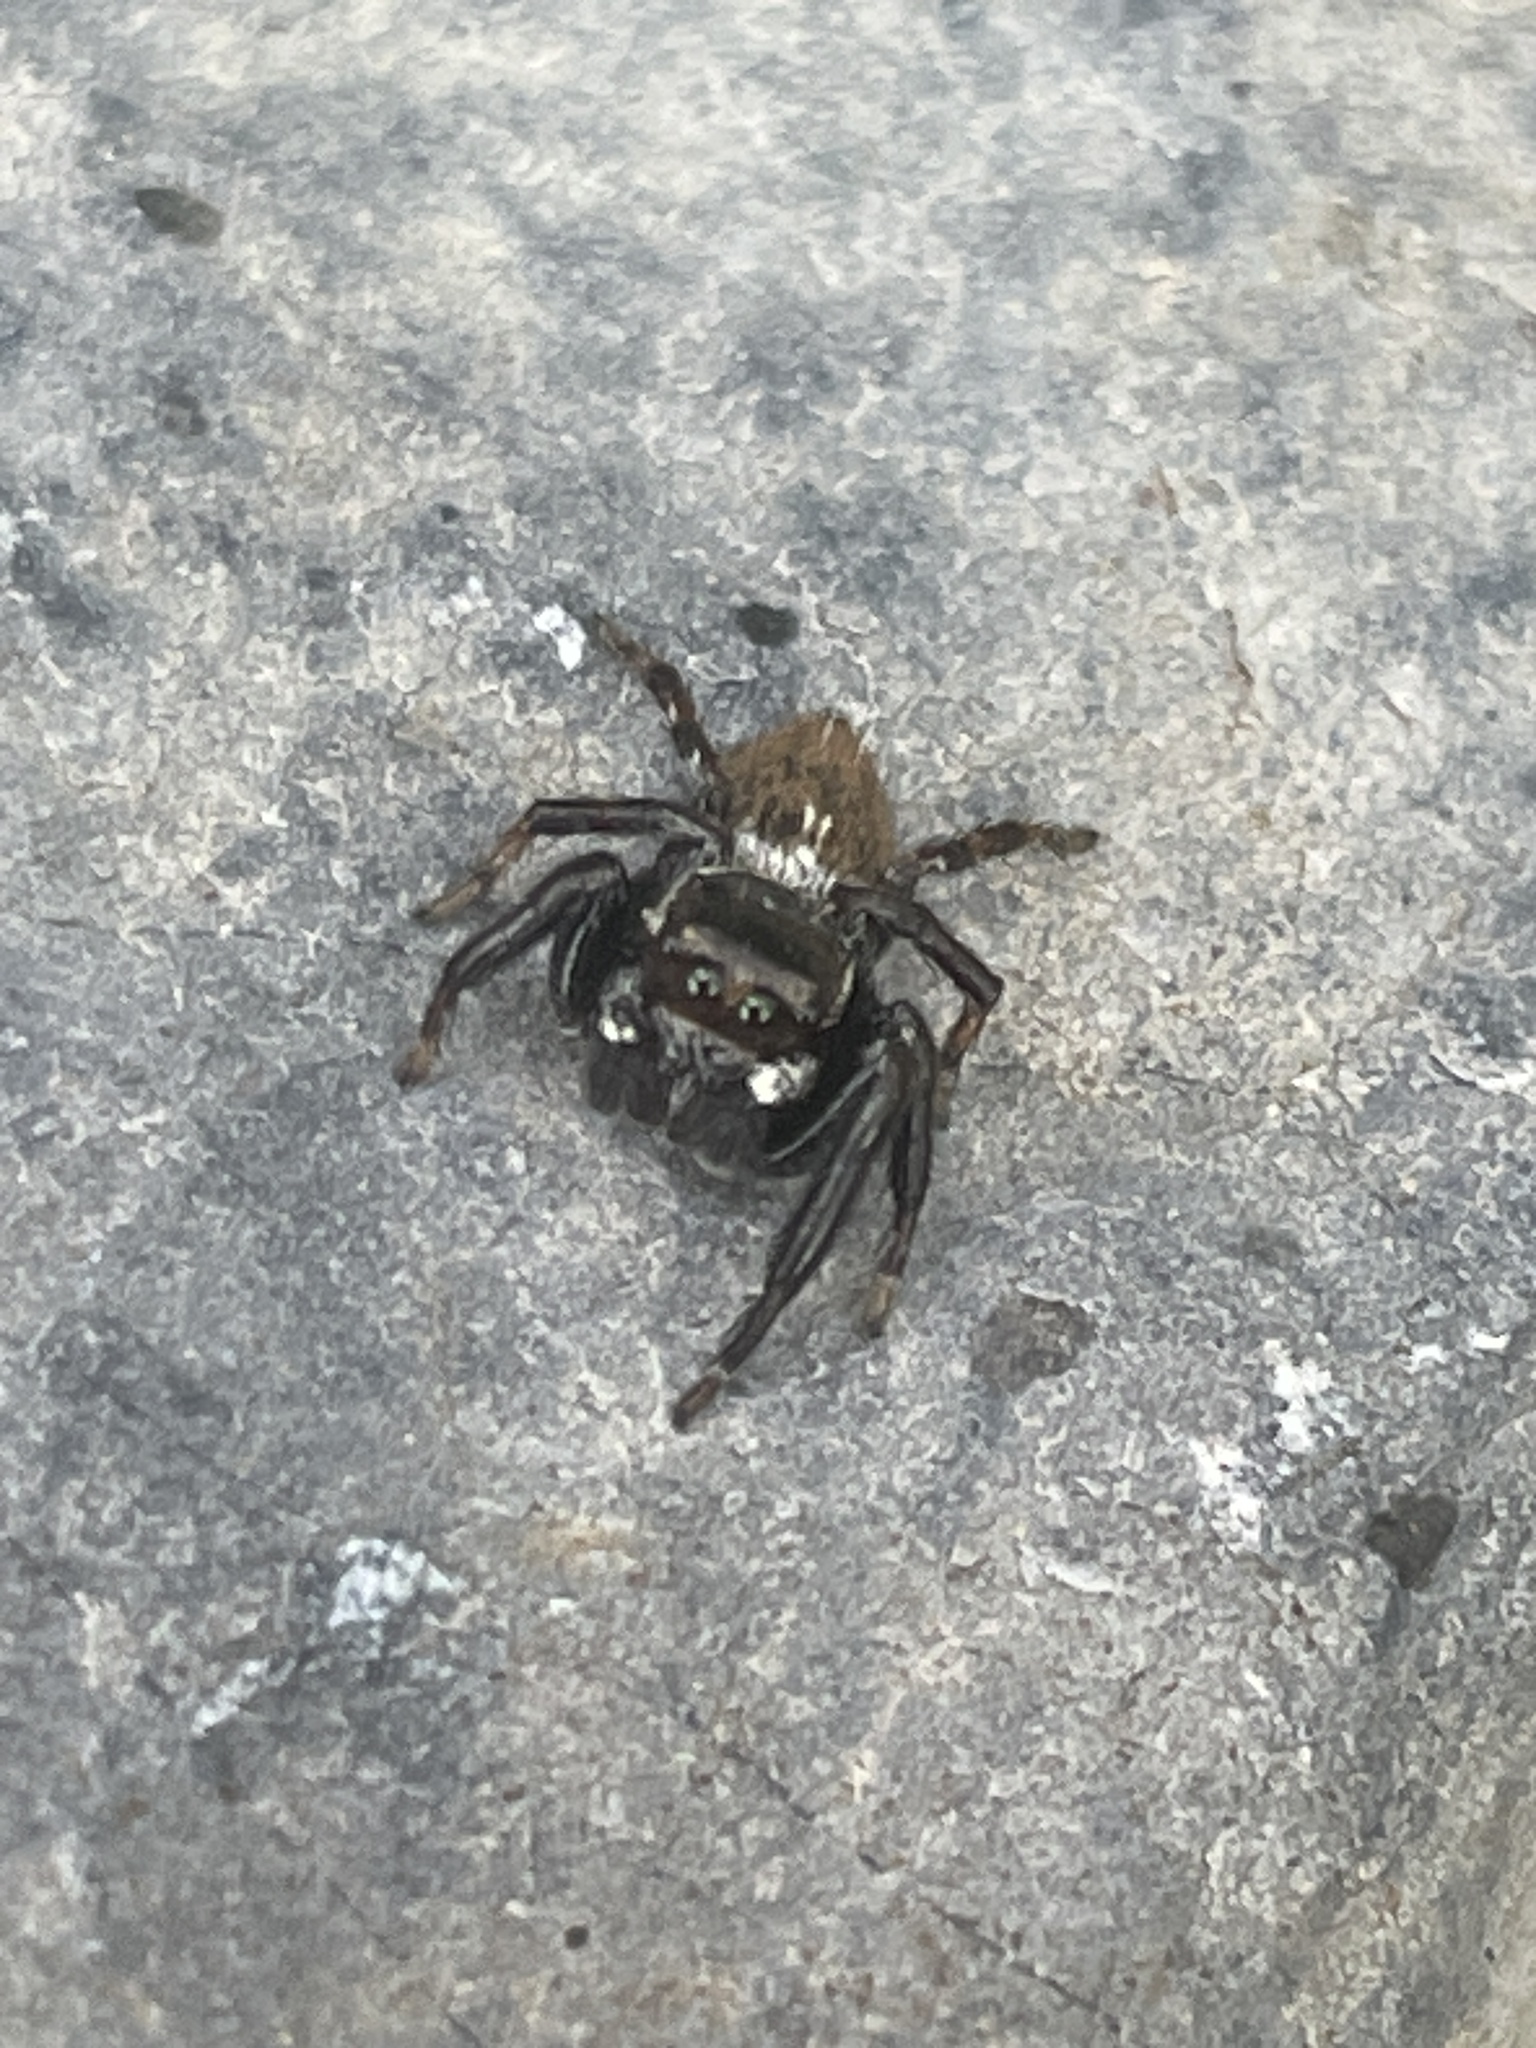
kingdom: Animalia
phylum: Arthropoda
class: Arachnida
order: Araneae
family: Salticidae
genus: Evarcha
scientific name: Evarcha jucunda
